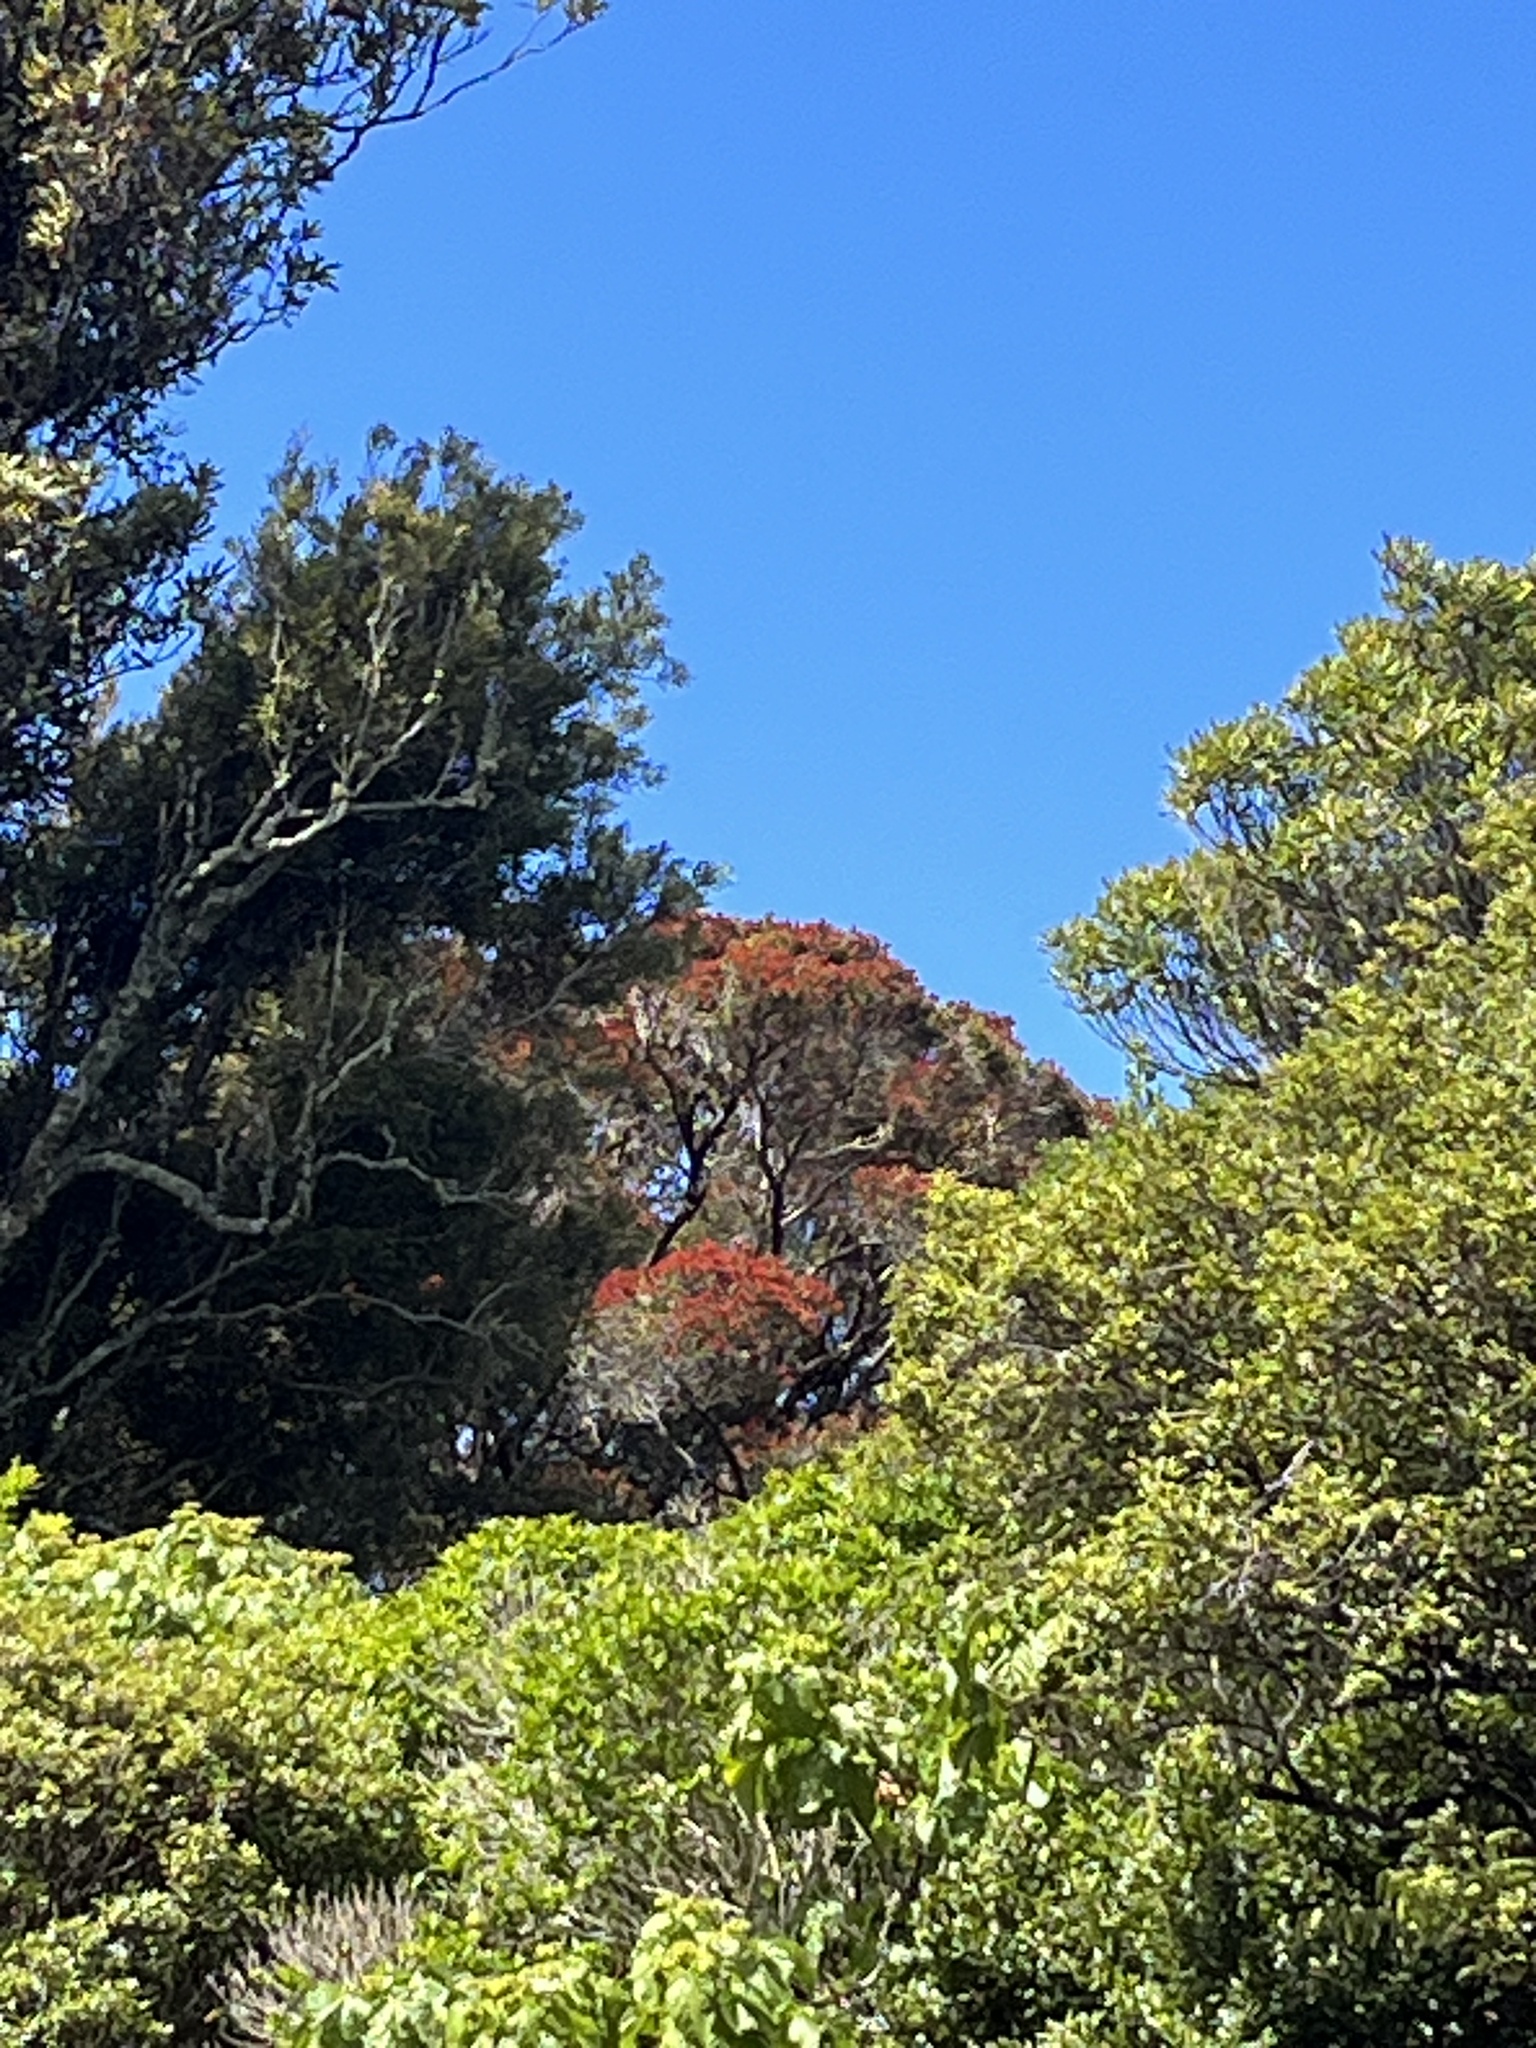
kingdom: Plantae
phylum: Tracheophyta
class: Magnoliopsida
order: Myrtales
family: Myrtaceae
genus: Metrosideros
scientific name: Metrosideros robusta
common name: Northern rata
